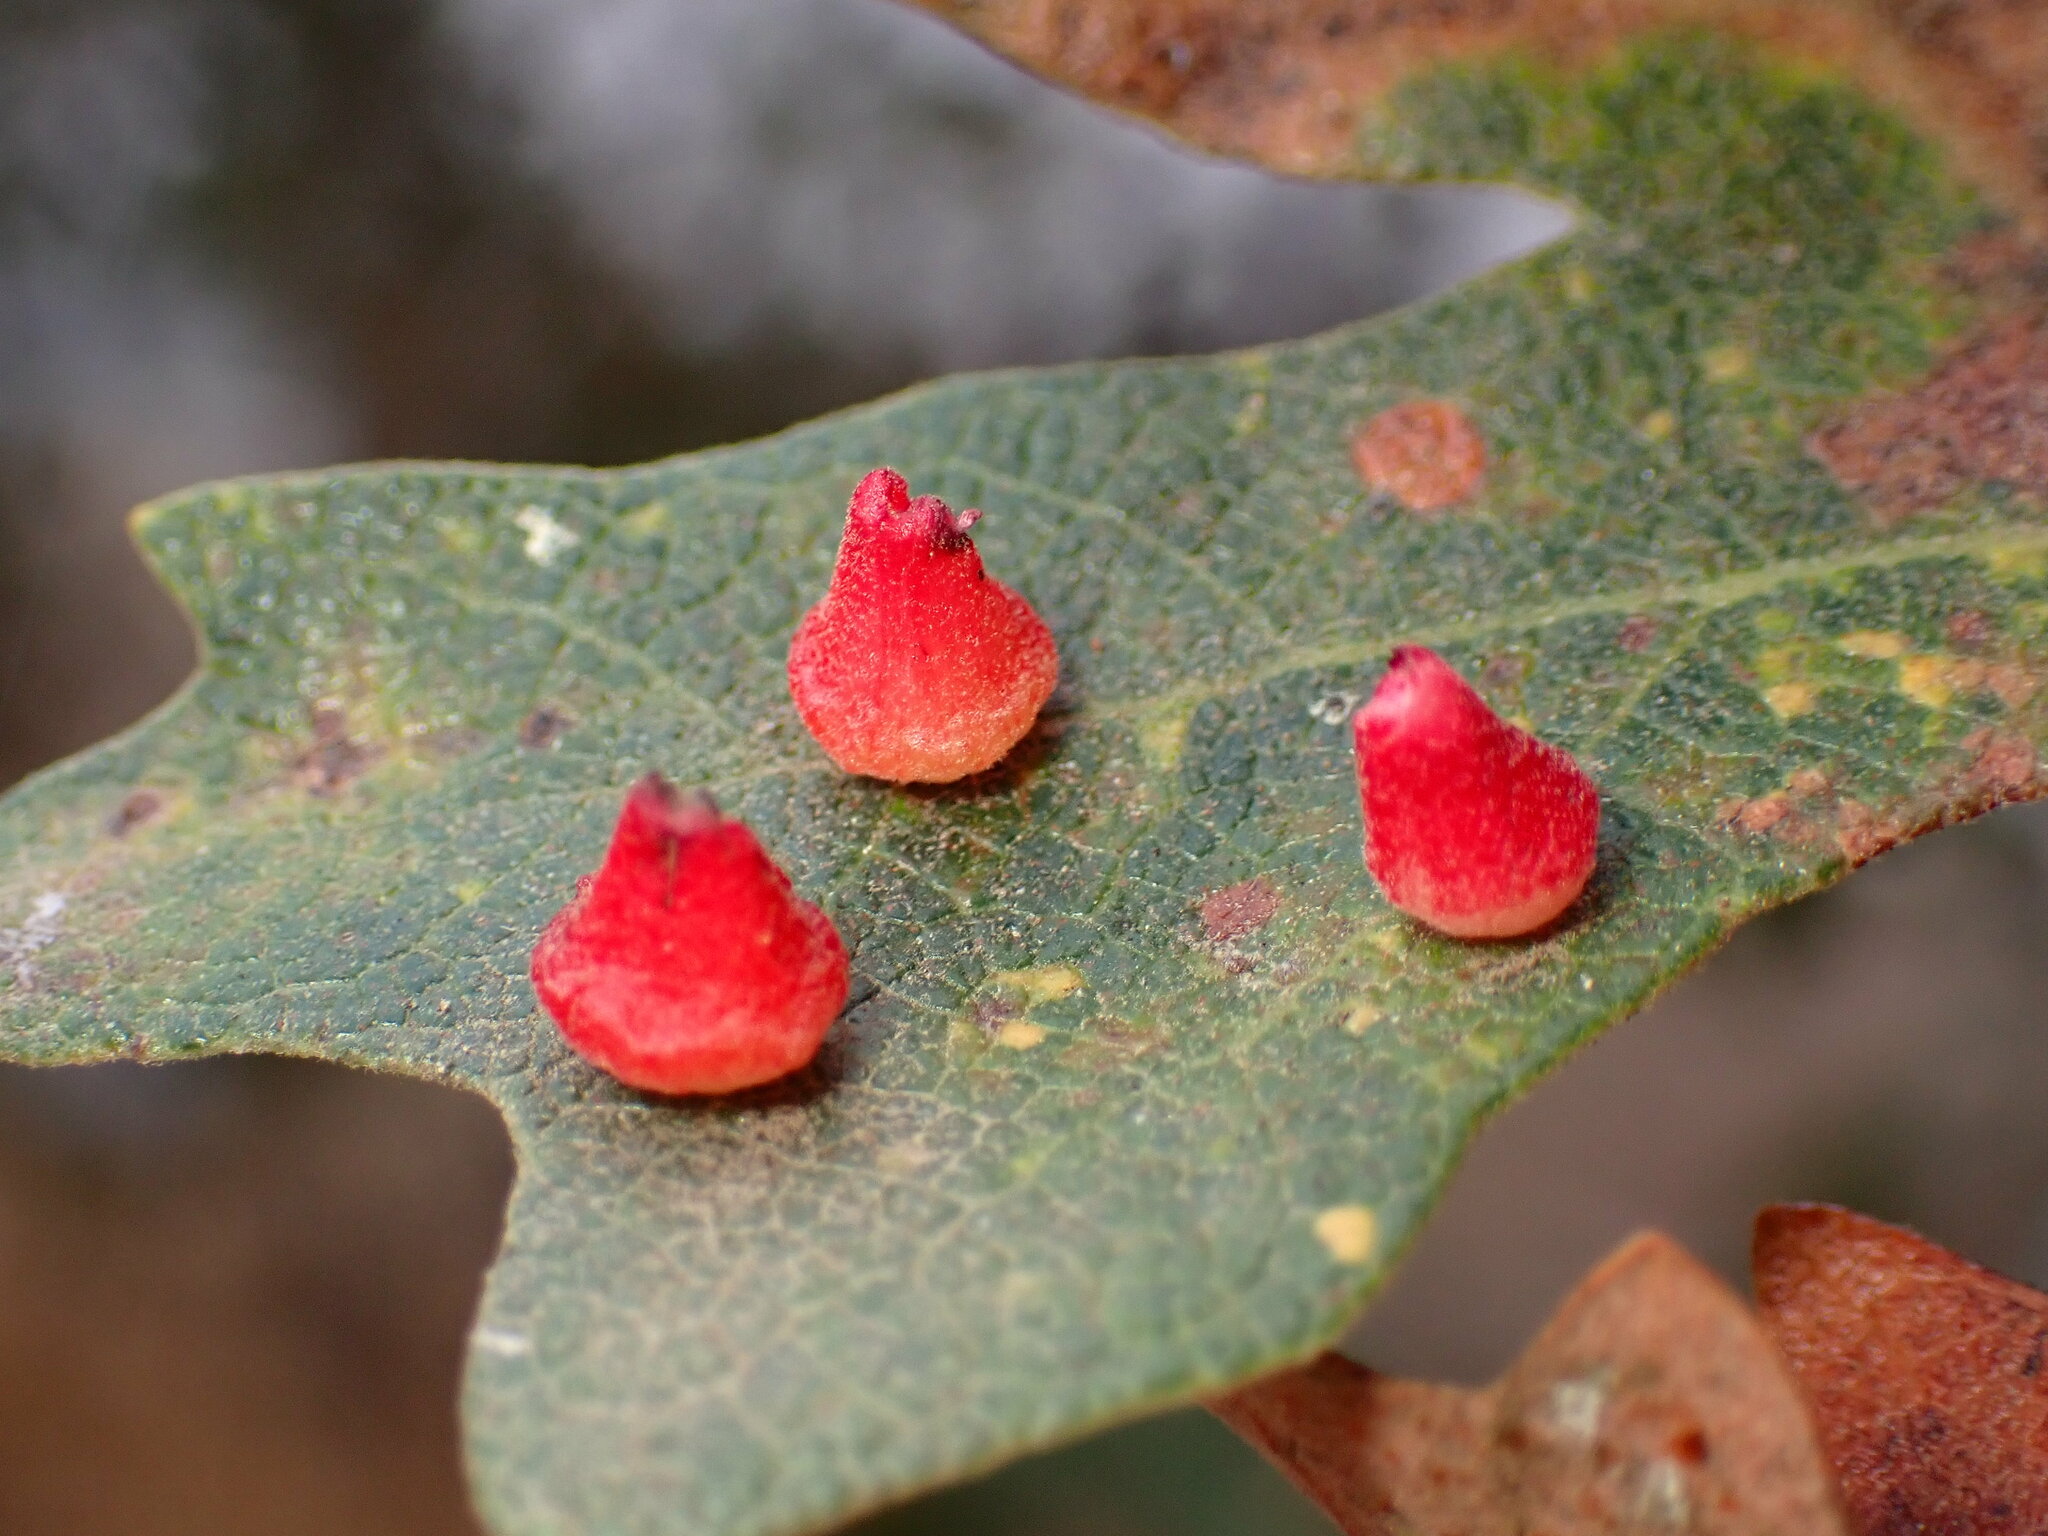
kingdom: Animalia
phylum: Arthropoda
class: Insecta
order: Hymenoptera
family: Cynipidae
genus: Andricus
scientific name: Andricus
